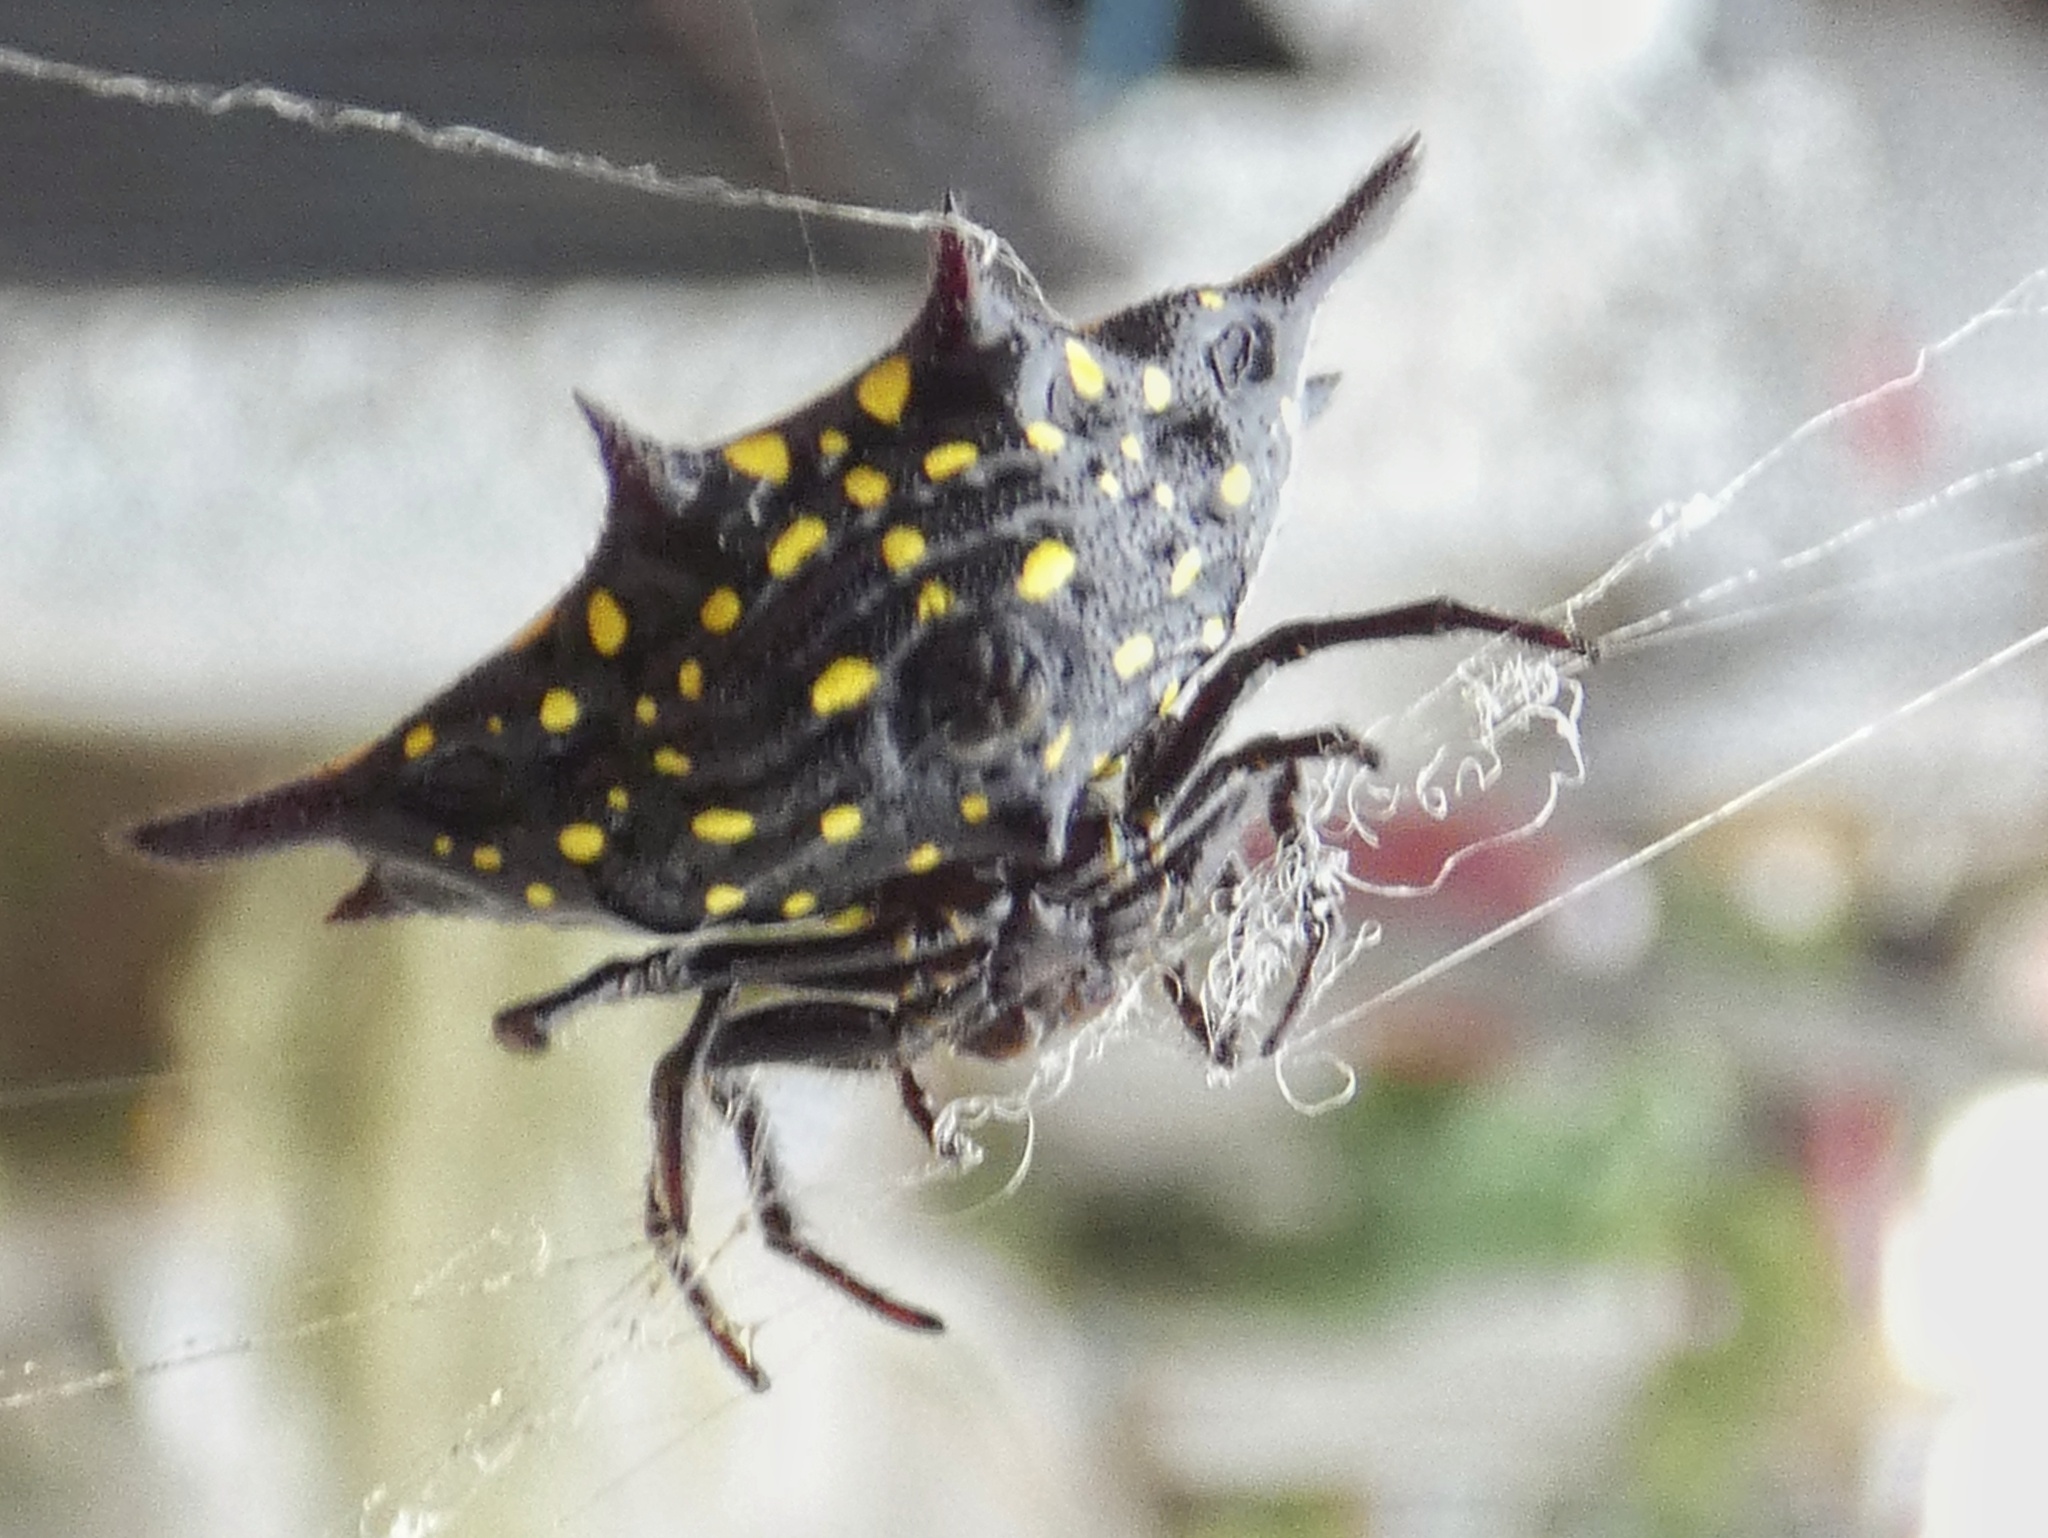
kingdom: Animalia
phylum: Arthropoda
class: Arachnida
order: Araneae
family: Araneidae
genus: Gasteracantha
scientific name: Gasteracantha panisicca
